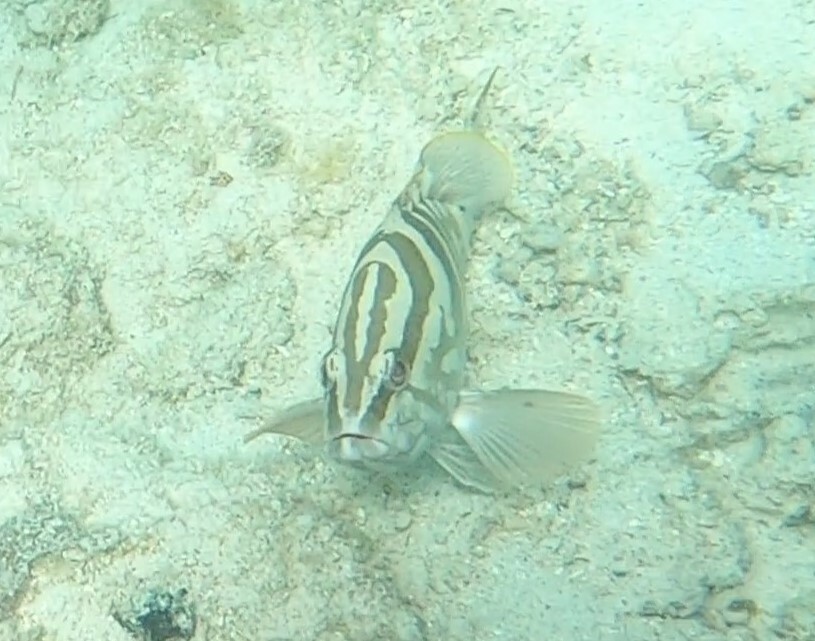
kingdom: Animalia
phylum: Chordata
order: Perciformes
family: Serranidae
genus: Epinephelus
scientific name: Epinephelus striatus
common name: Nassau grouper
